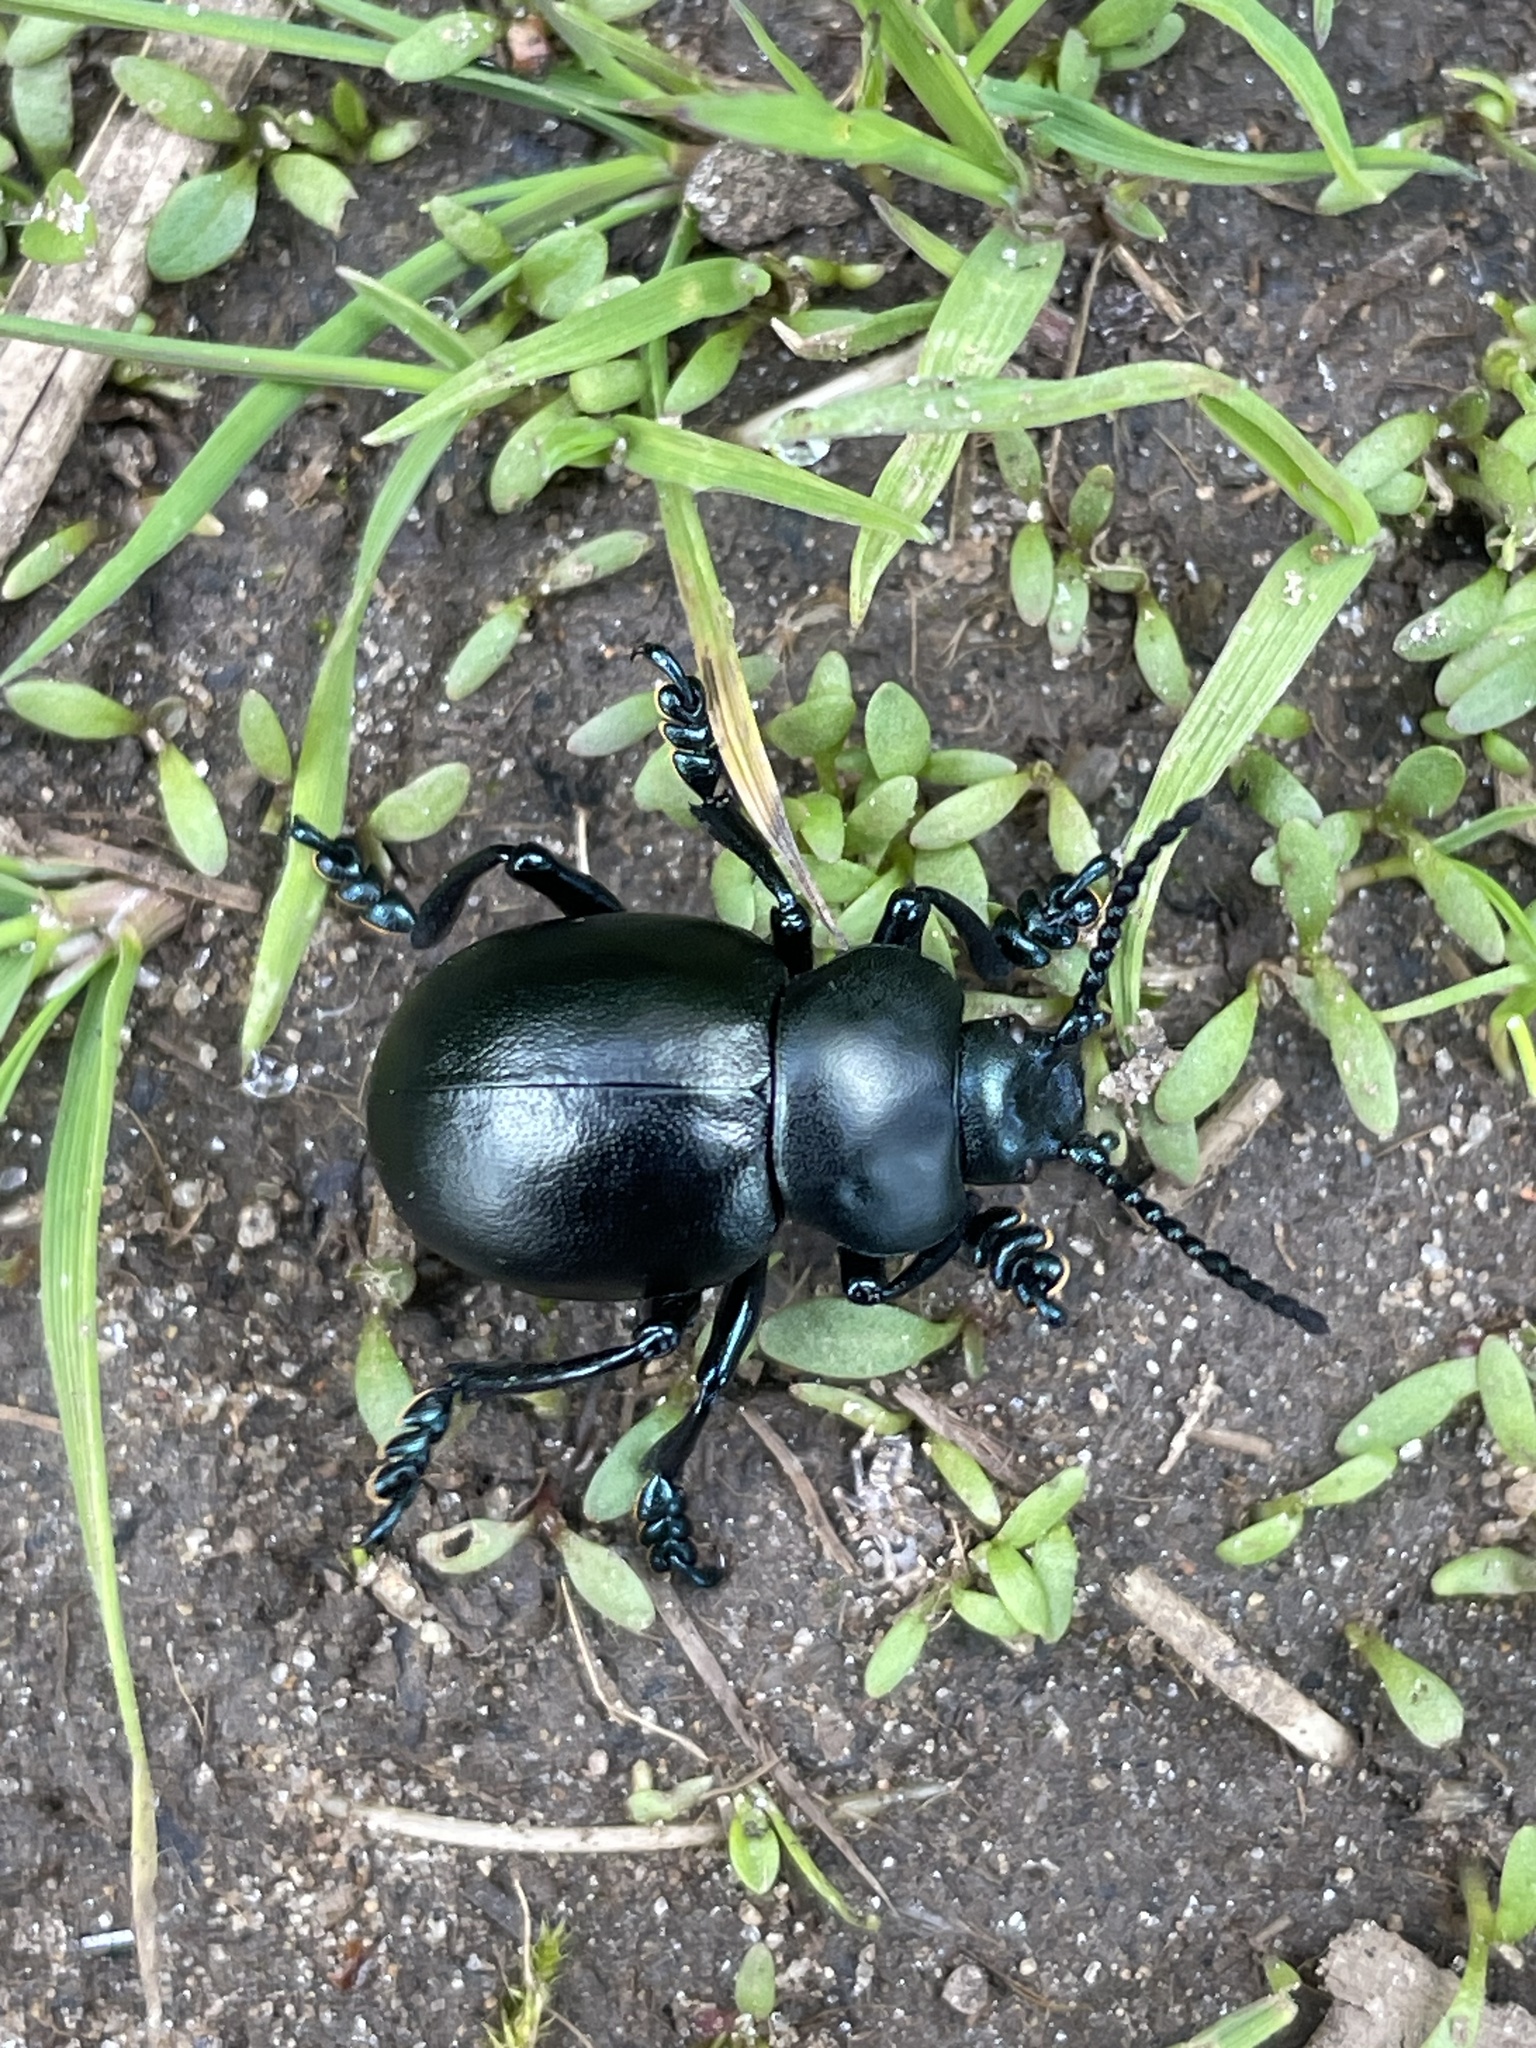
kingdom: Animalia
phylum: Arthropoda
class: Insecta
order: Coleoptera
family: Chrysomelidae
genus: Timarcha
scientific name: Timarcha tenebricosa
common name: Bloody-nosed beetle
